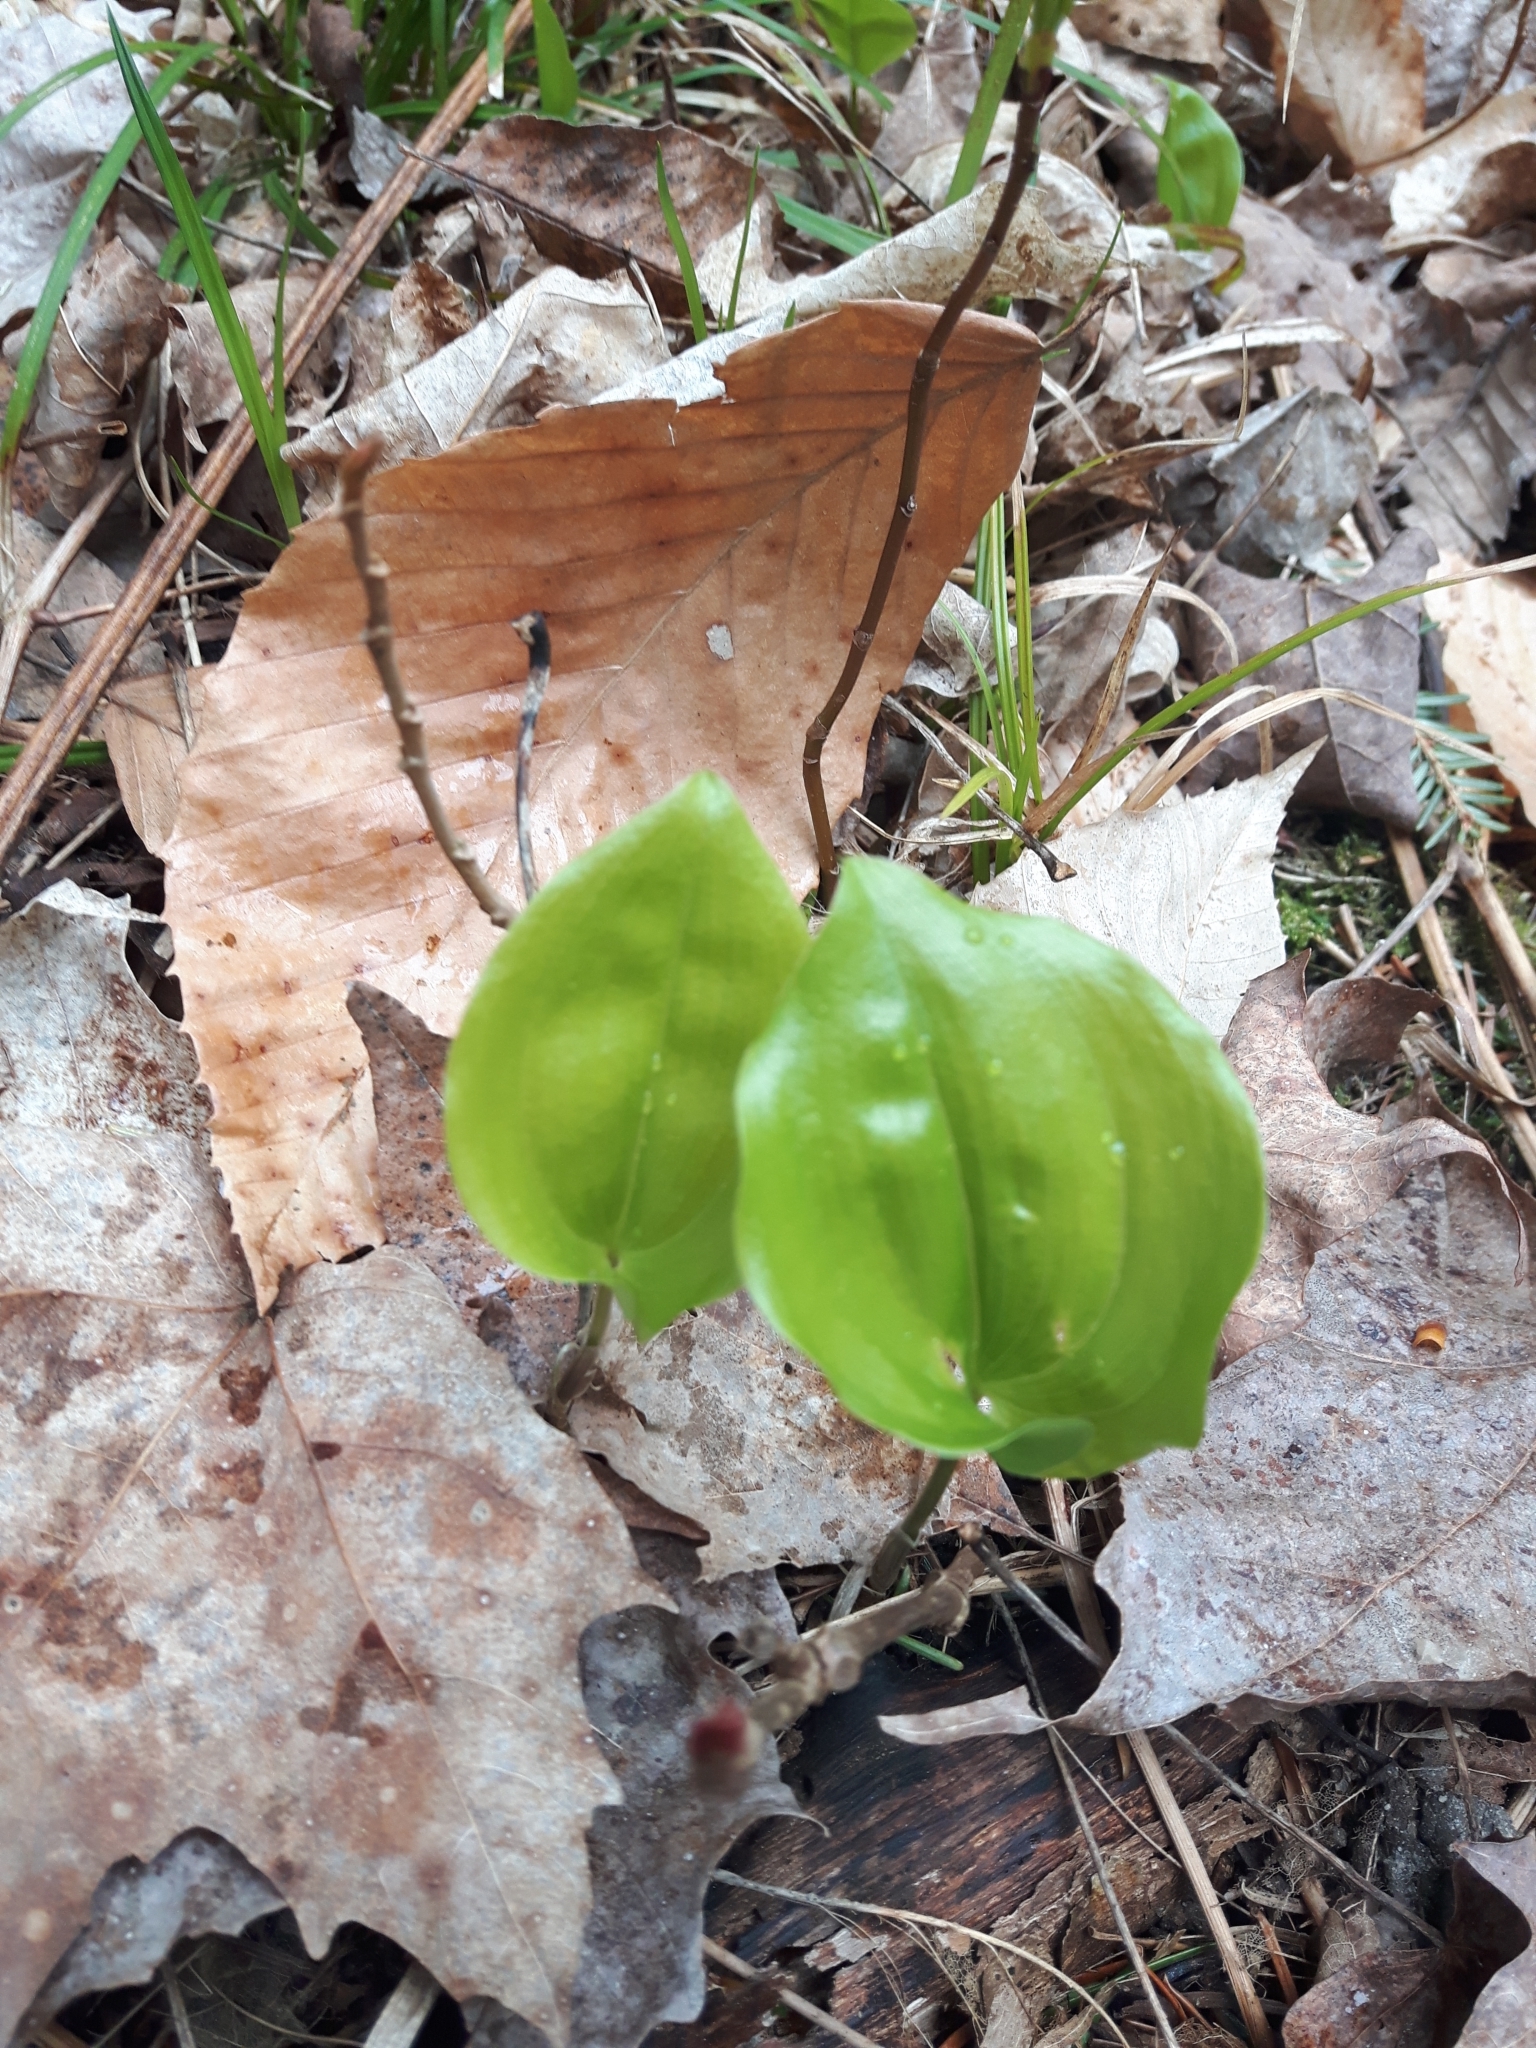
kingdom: Plantae
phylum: Tracheophyta
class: Liliopsida
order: Asparagales
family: Asparagaceae
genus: Maianthemum
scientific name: Maianthemum canadense
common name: False lily-of-the-valley
